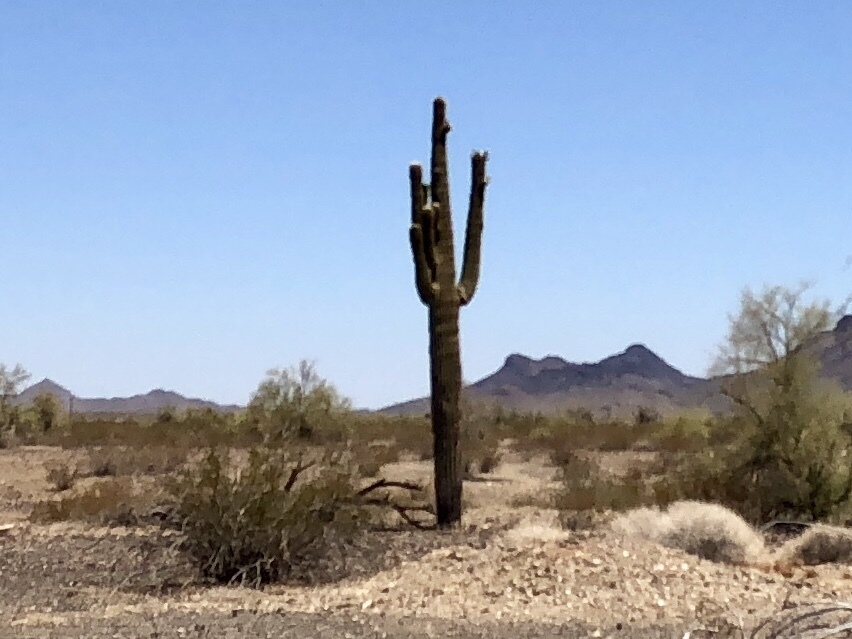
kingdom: Plantae
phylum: Tracheophyta
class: Magnoliopsida
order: Caryophyllales
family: Cactaceae
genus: Carnegiea
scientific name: Carnegiea gigantea
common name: Saguaro
